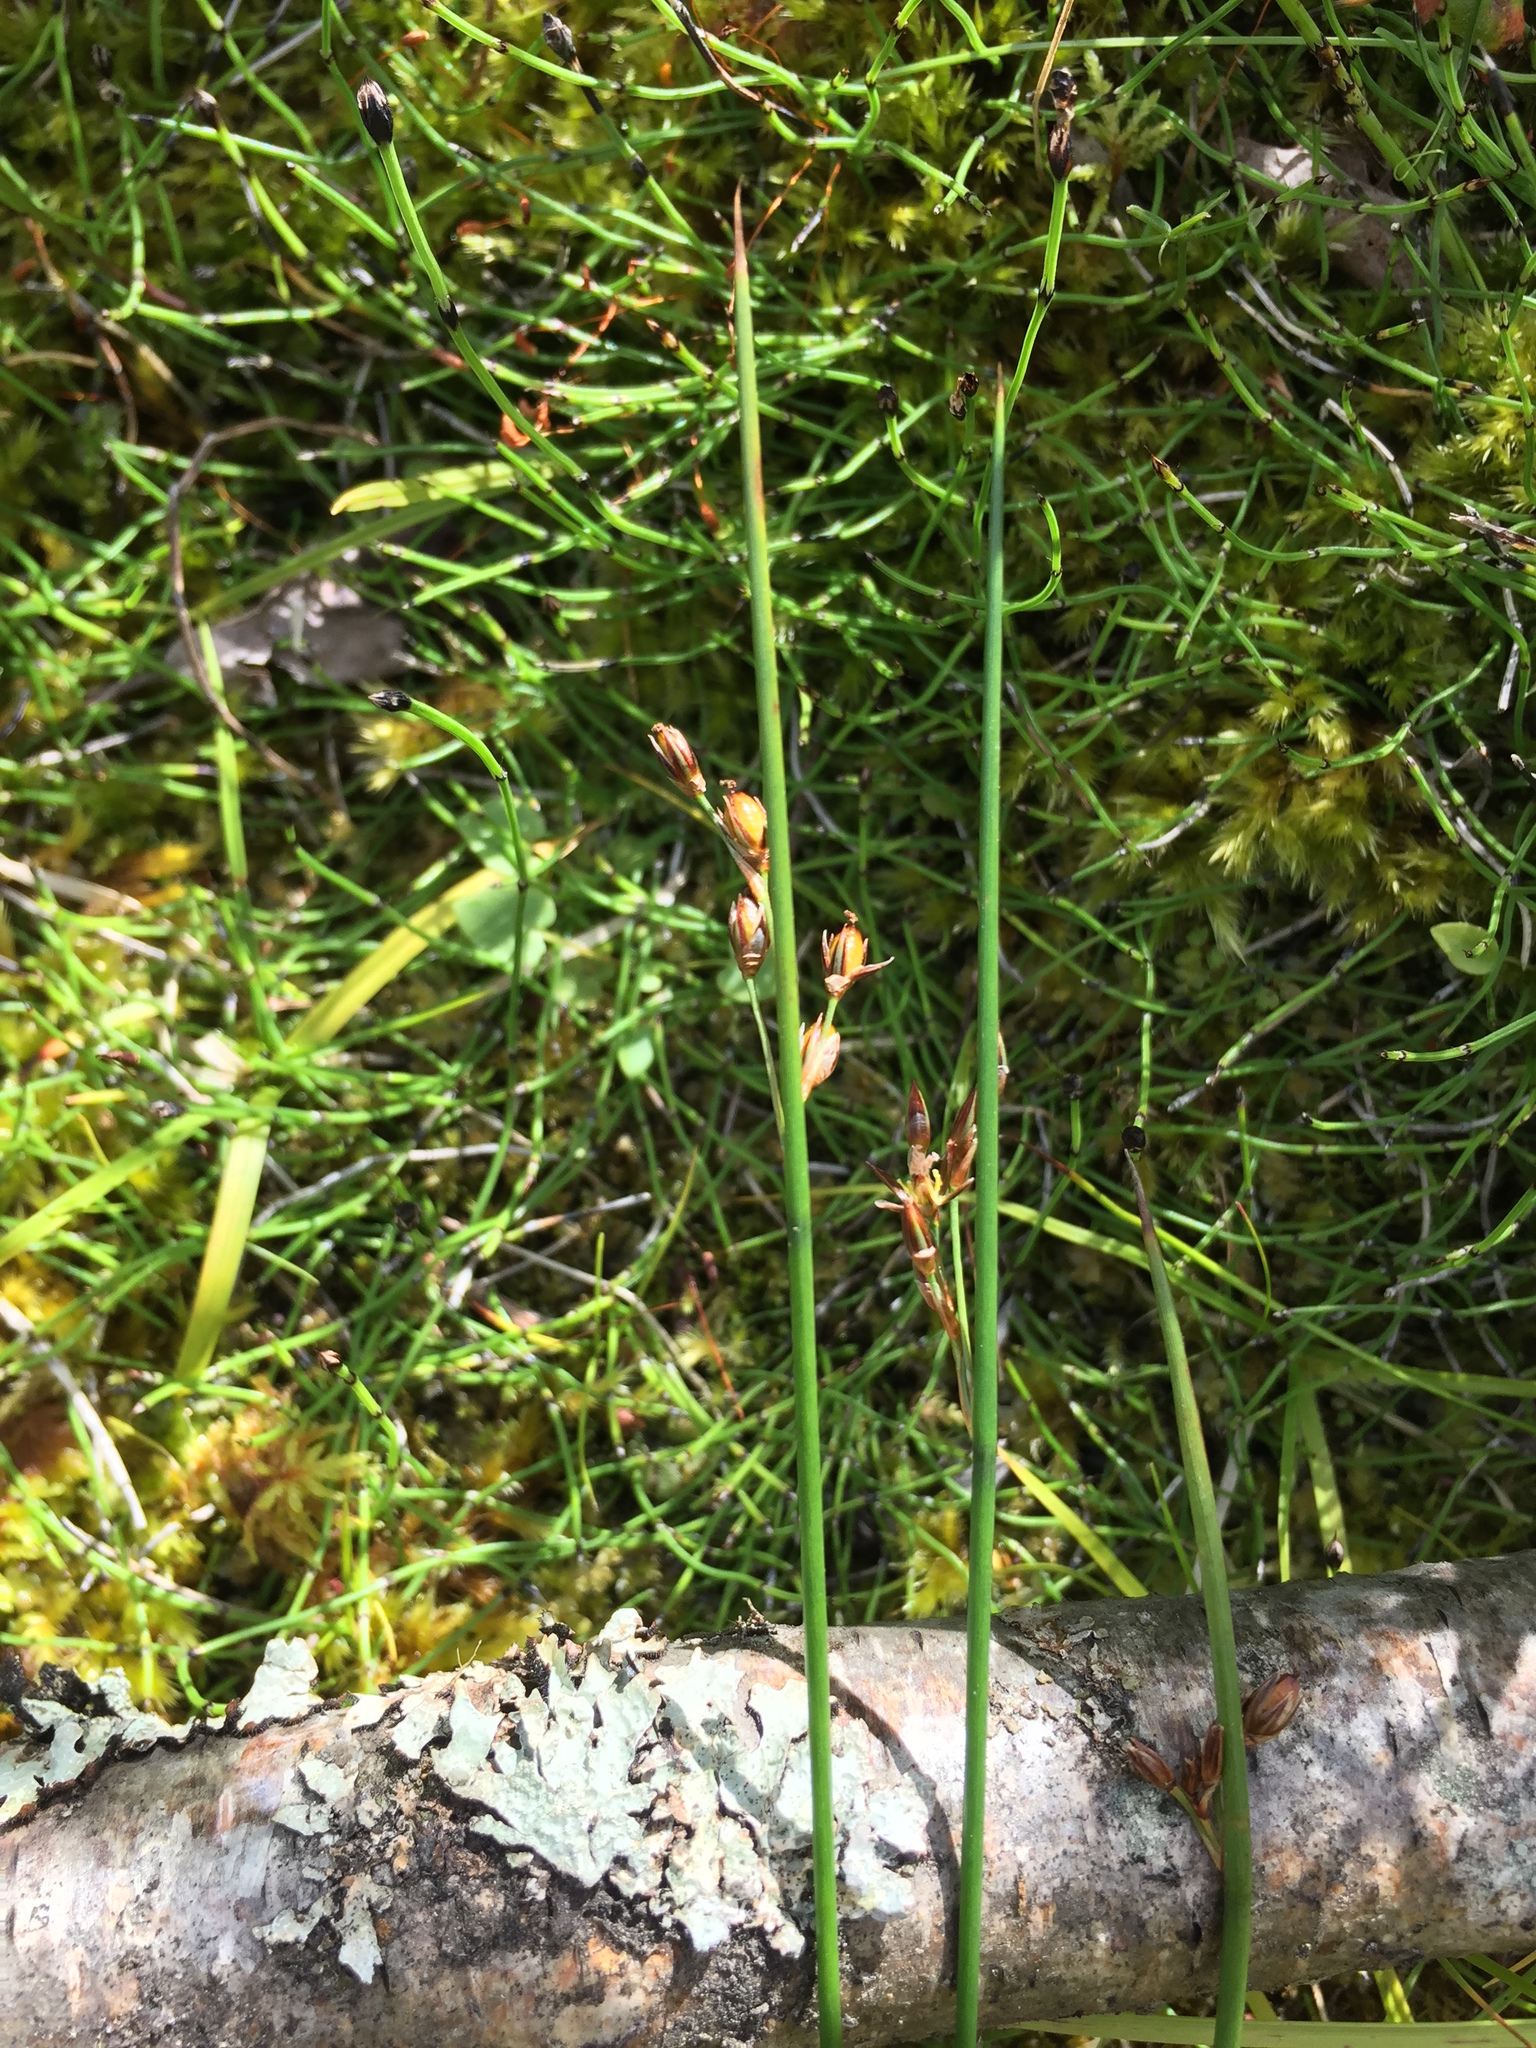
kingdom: Plantae
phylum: Tracheophyta
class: Liliopsida
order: Poales
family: Juncaceae
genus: Juncus
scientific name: Juncus arcticus
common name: Arctic rush
